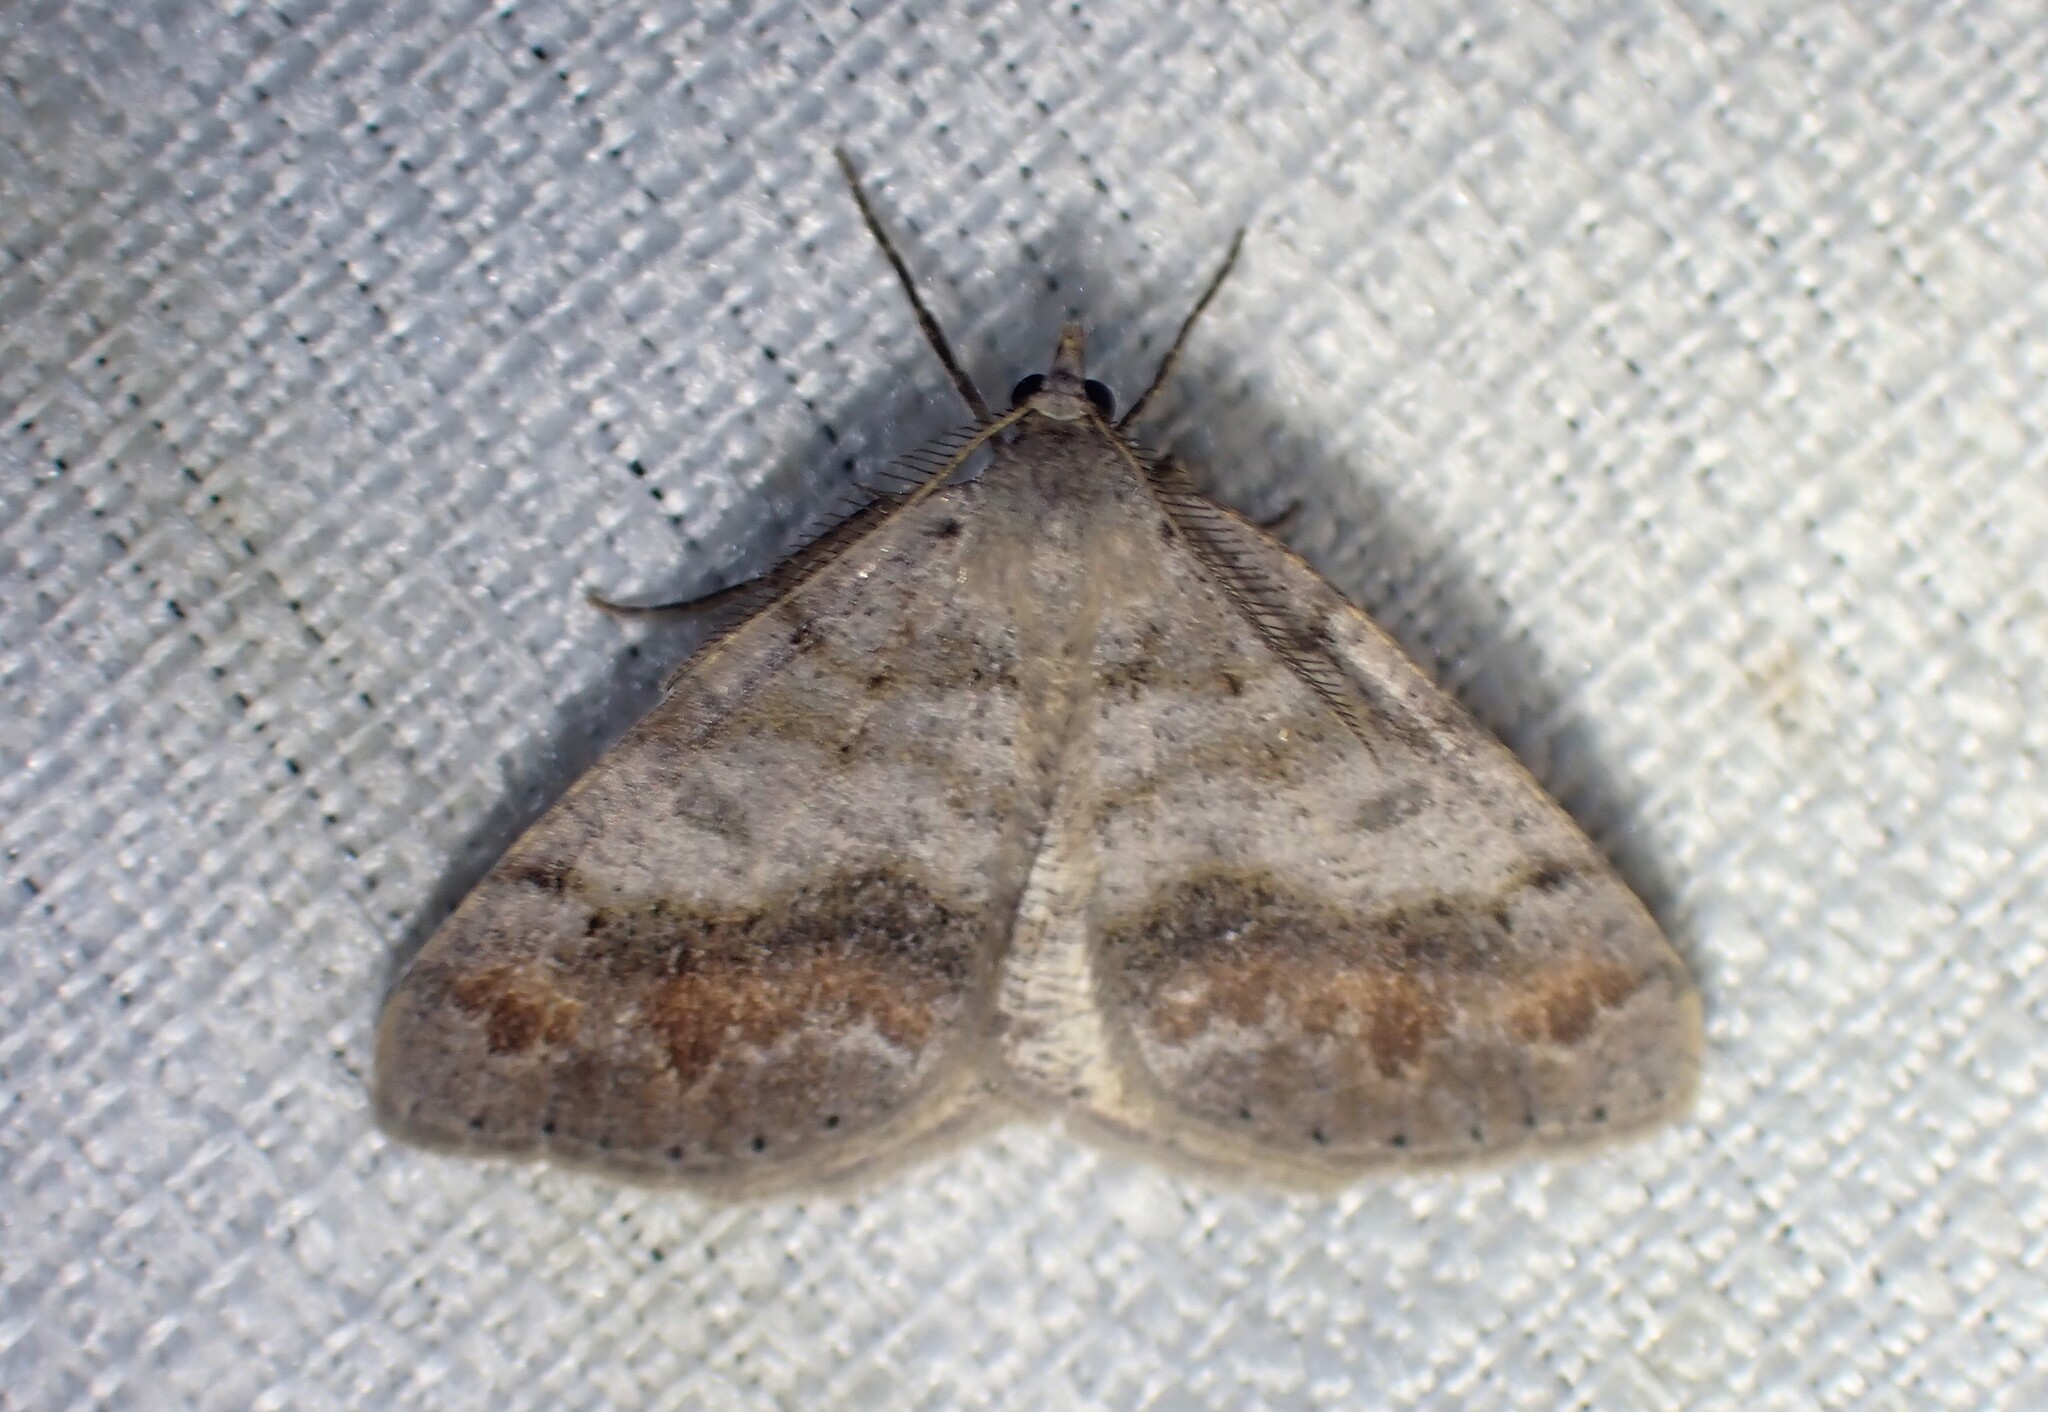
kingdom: Animalia
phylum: Arthropoda
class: Insecta
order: Lepidoptera
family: Geometridae
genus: Macaria
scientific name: Macaria loricaria
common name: False bruce spanworm
